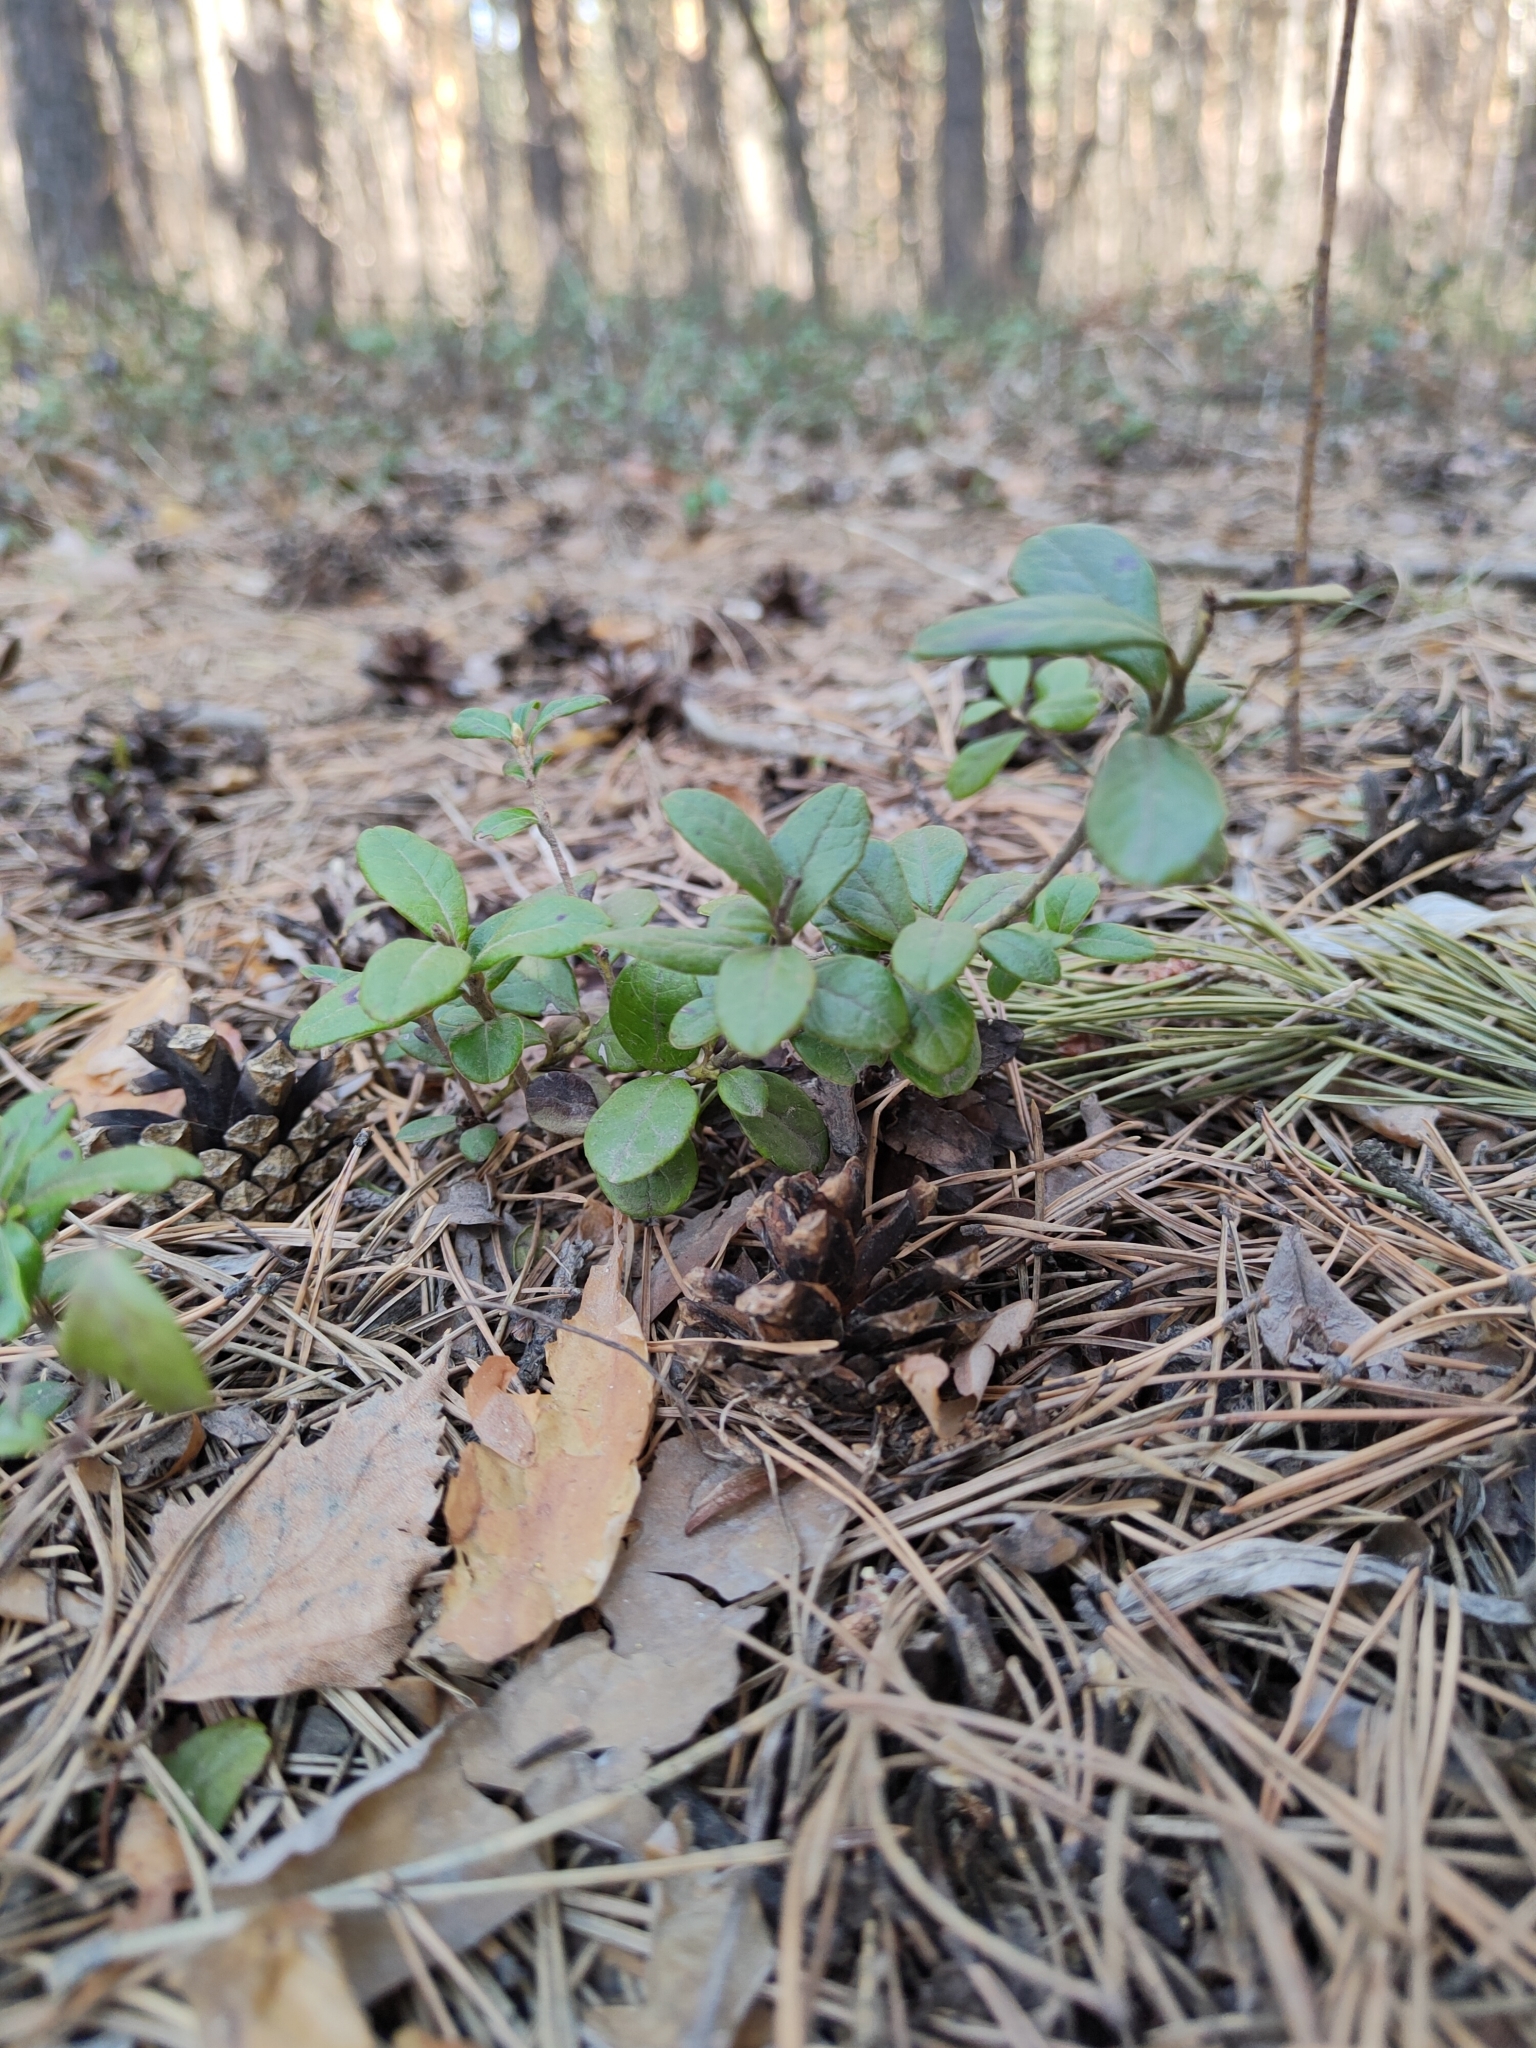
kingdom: Plantae
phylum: Tracheophyta
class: Magnoliopsida
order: Ericales
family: Ericaceae
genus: Vaccinium
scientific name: Vaccinium vitis-idaea
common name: Cowberry
